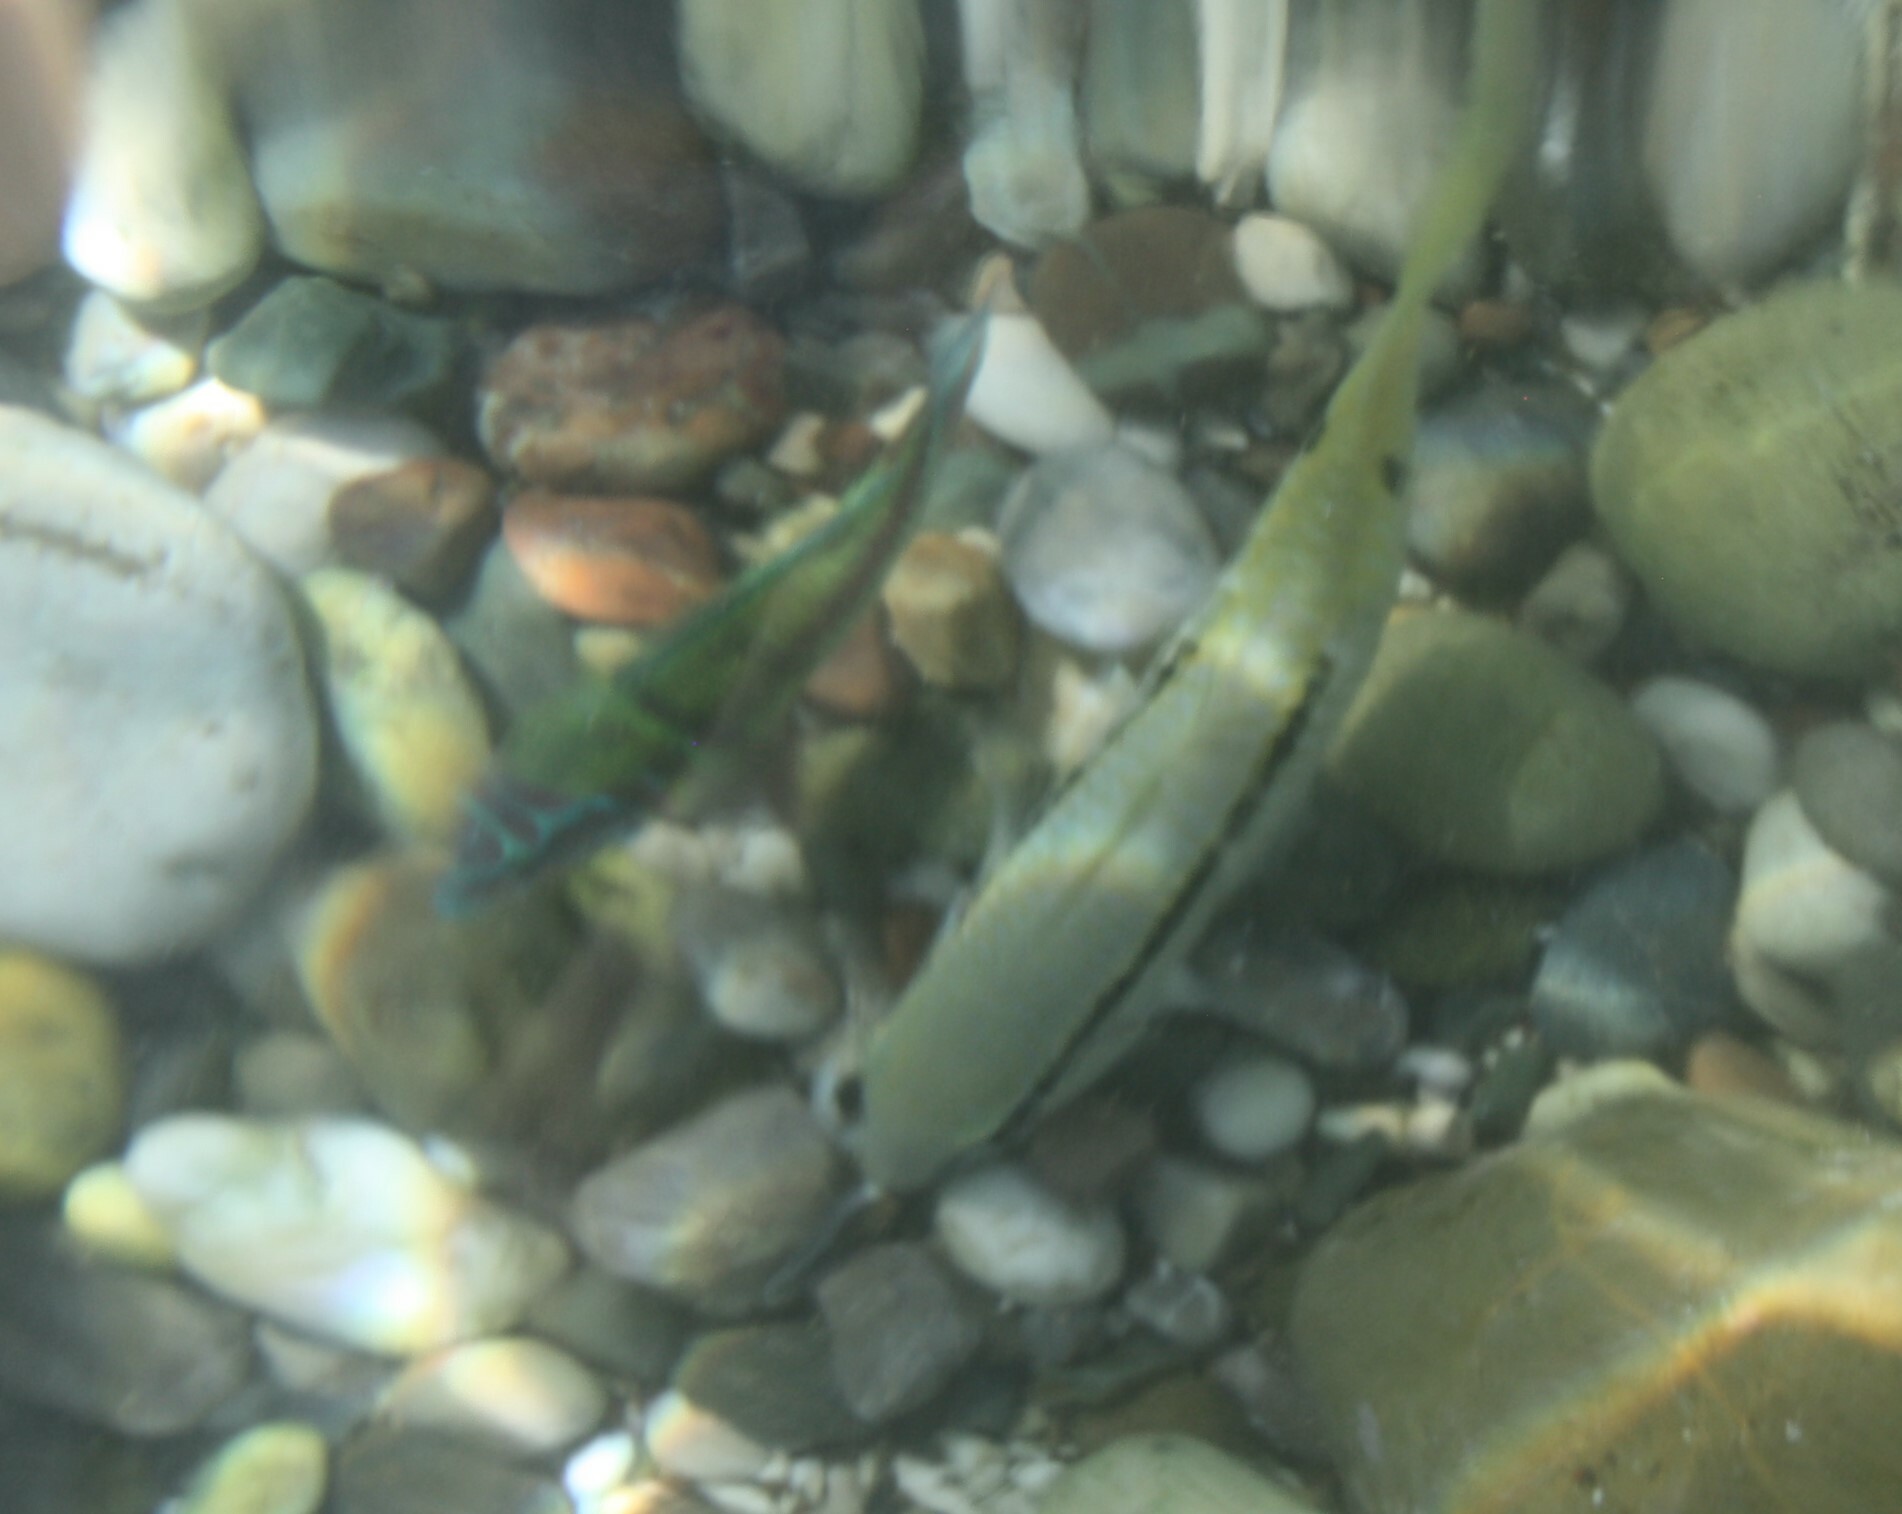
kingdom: Animalia
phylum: Chordata
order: Perciformes
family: Labridae
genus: Thalassoma
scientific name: Thalassoma pavo
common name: Ornate wrasse
